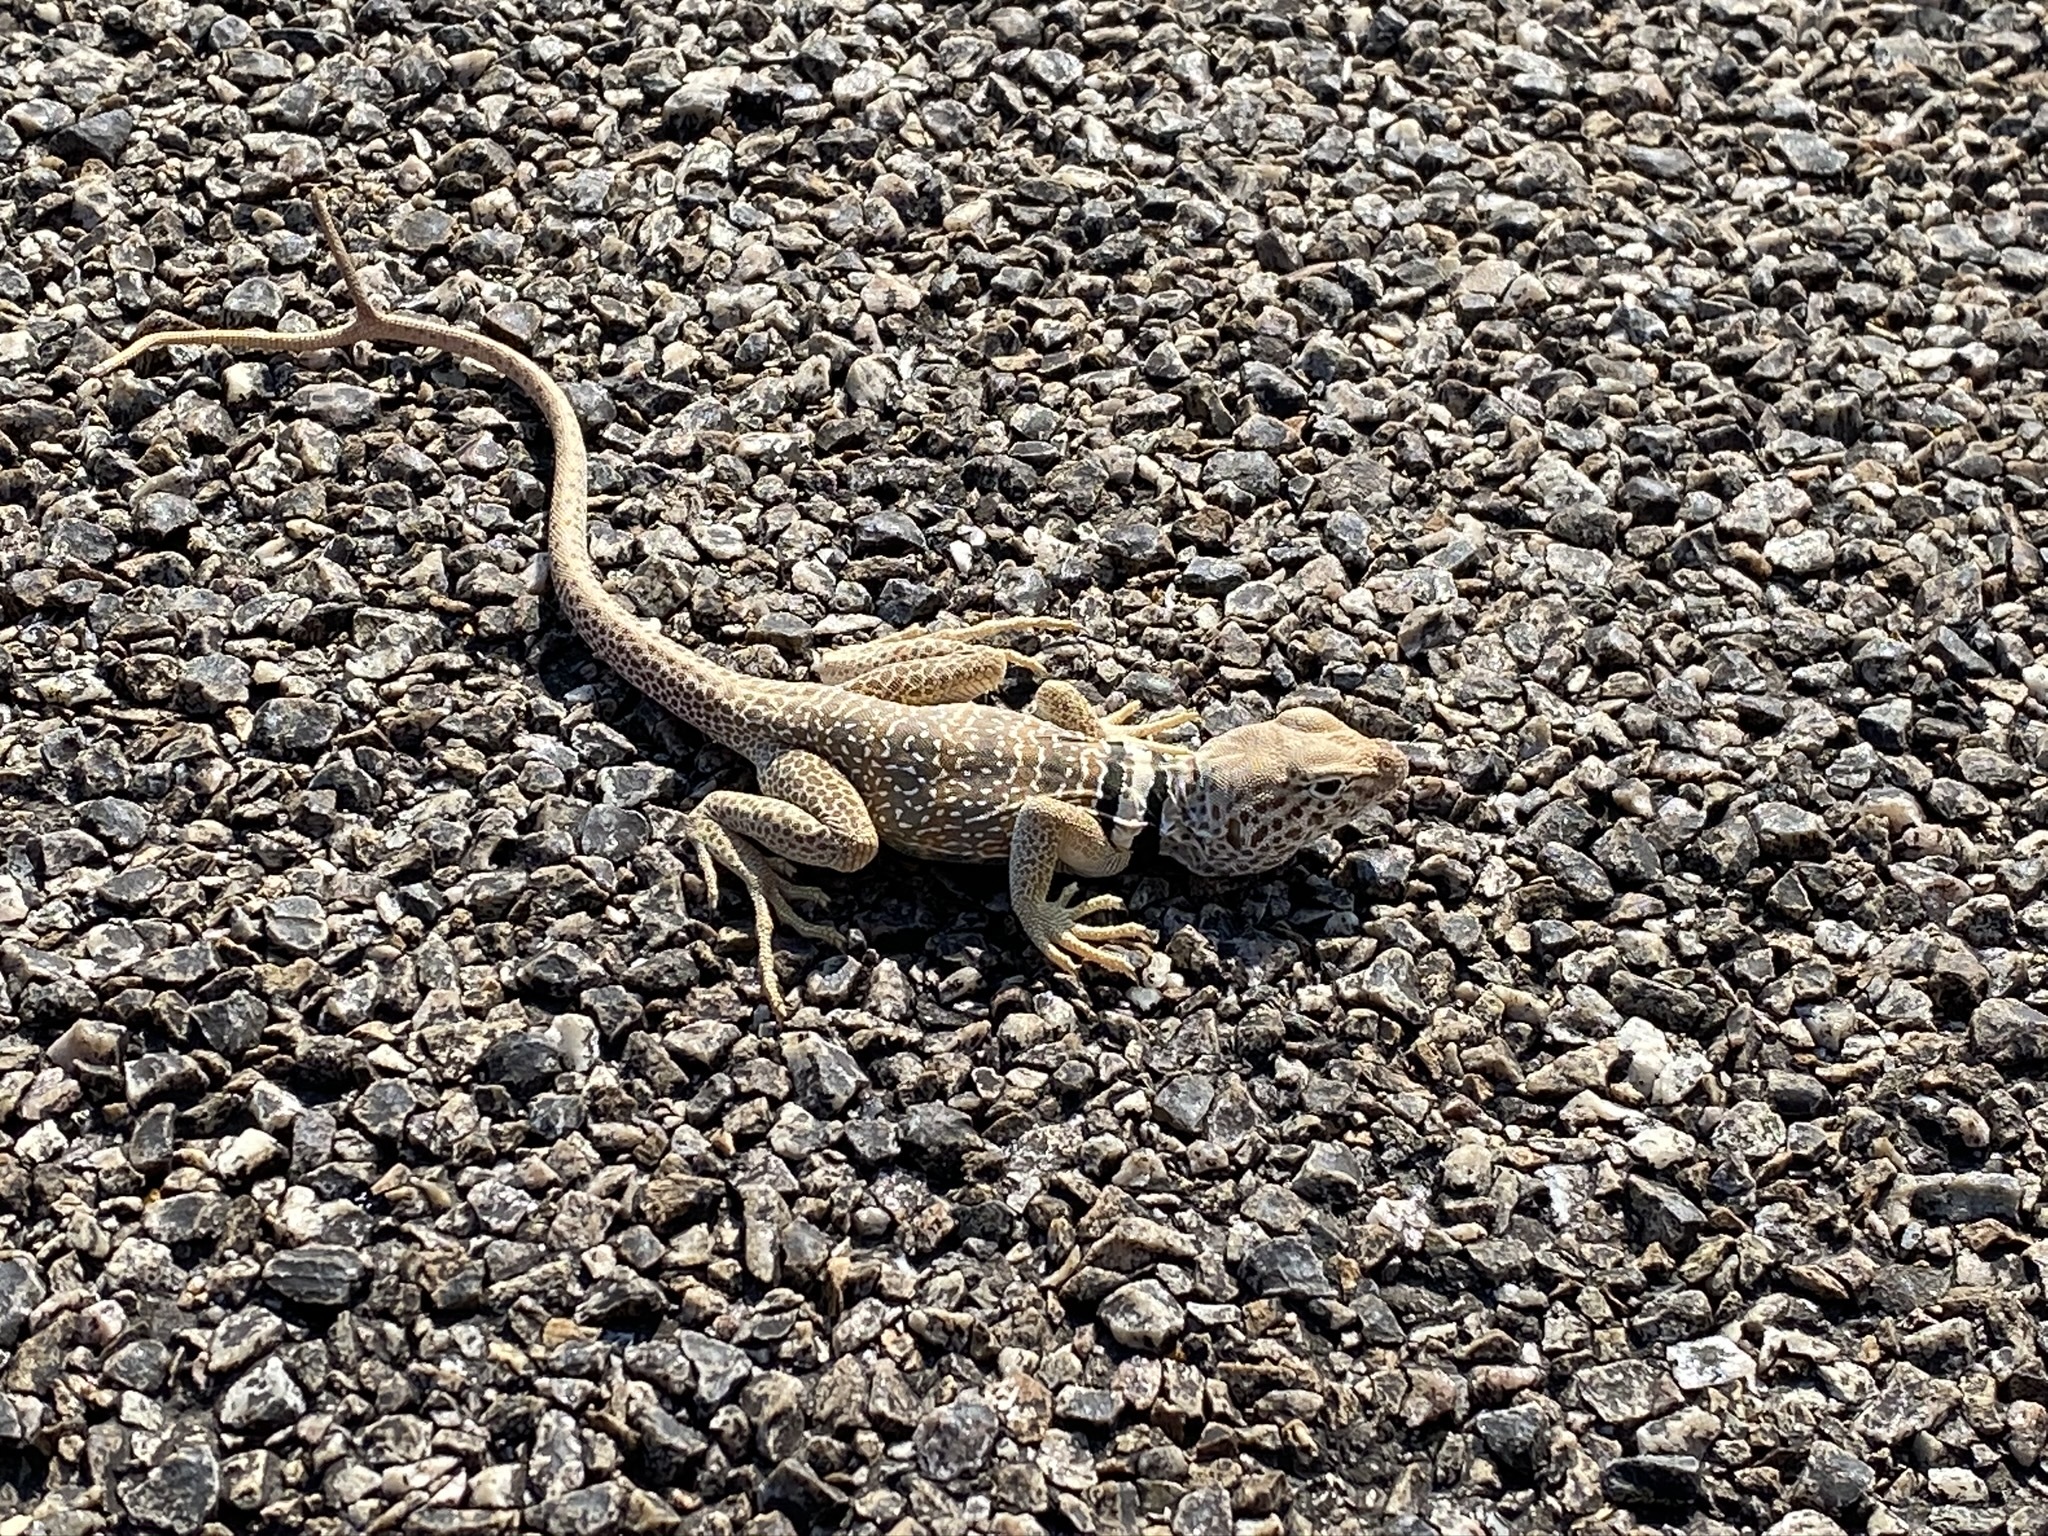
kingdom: Animalia
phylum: Chordata
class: Squamata
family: Crotaphytidae
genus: Crotaphytus
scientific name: Crotaphytus bicinctores
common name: Mojave black-collared lizard
